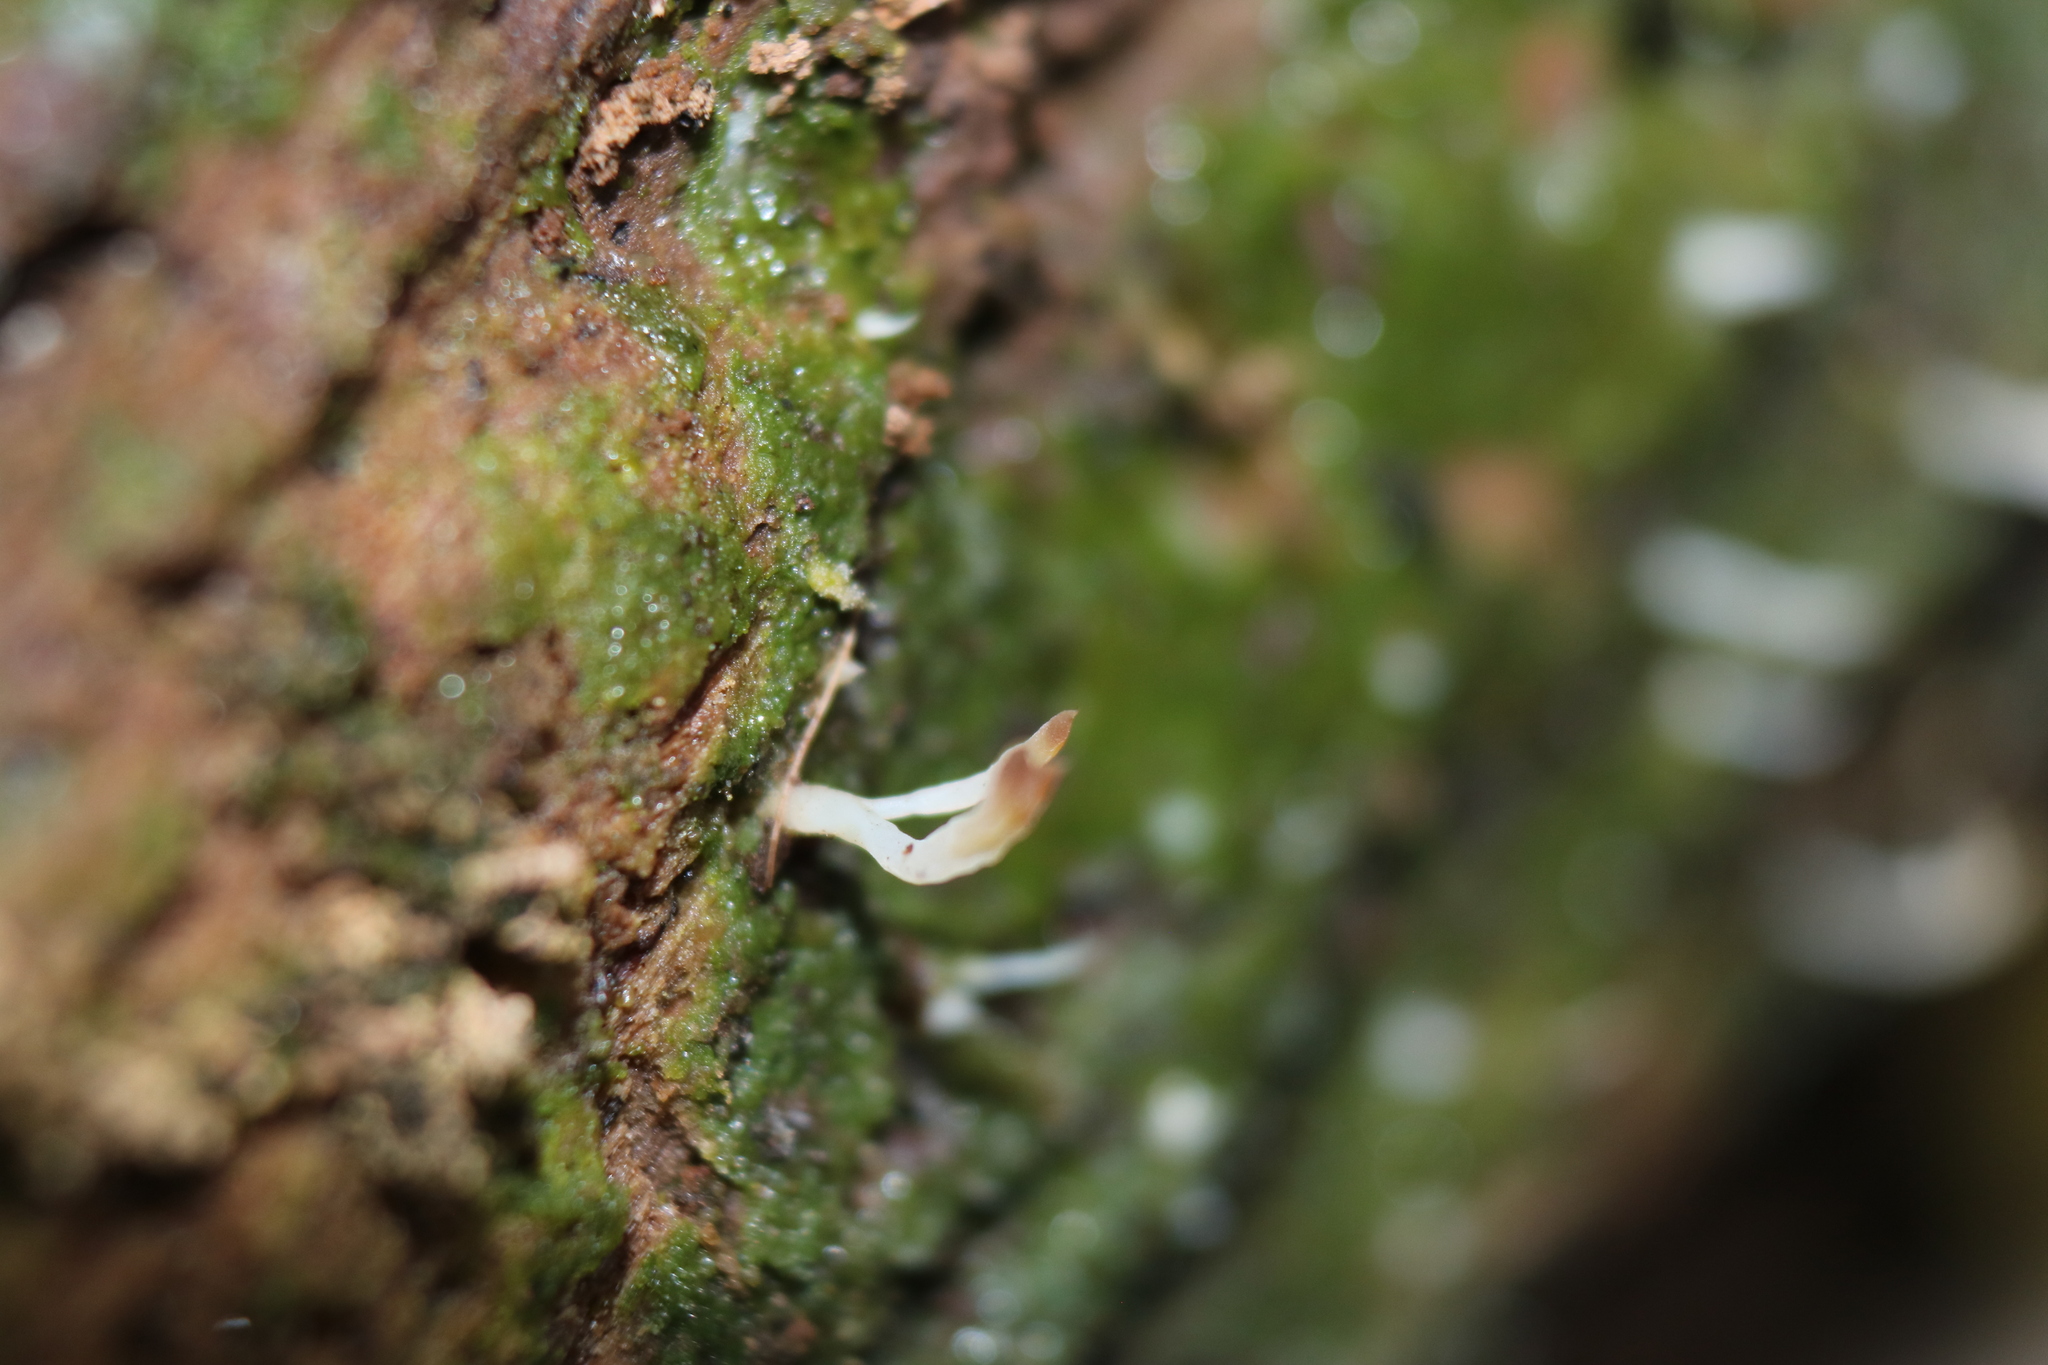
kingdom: Fungi
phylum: Basidiomycota
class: Agaricomycetes
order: Cantharellales
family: Hydnaceae
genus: Multiclavula
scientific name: Multiclavula mucida
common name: White green-algae coral
